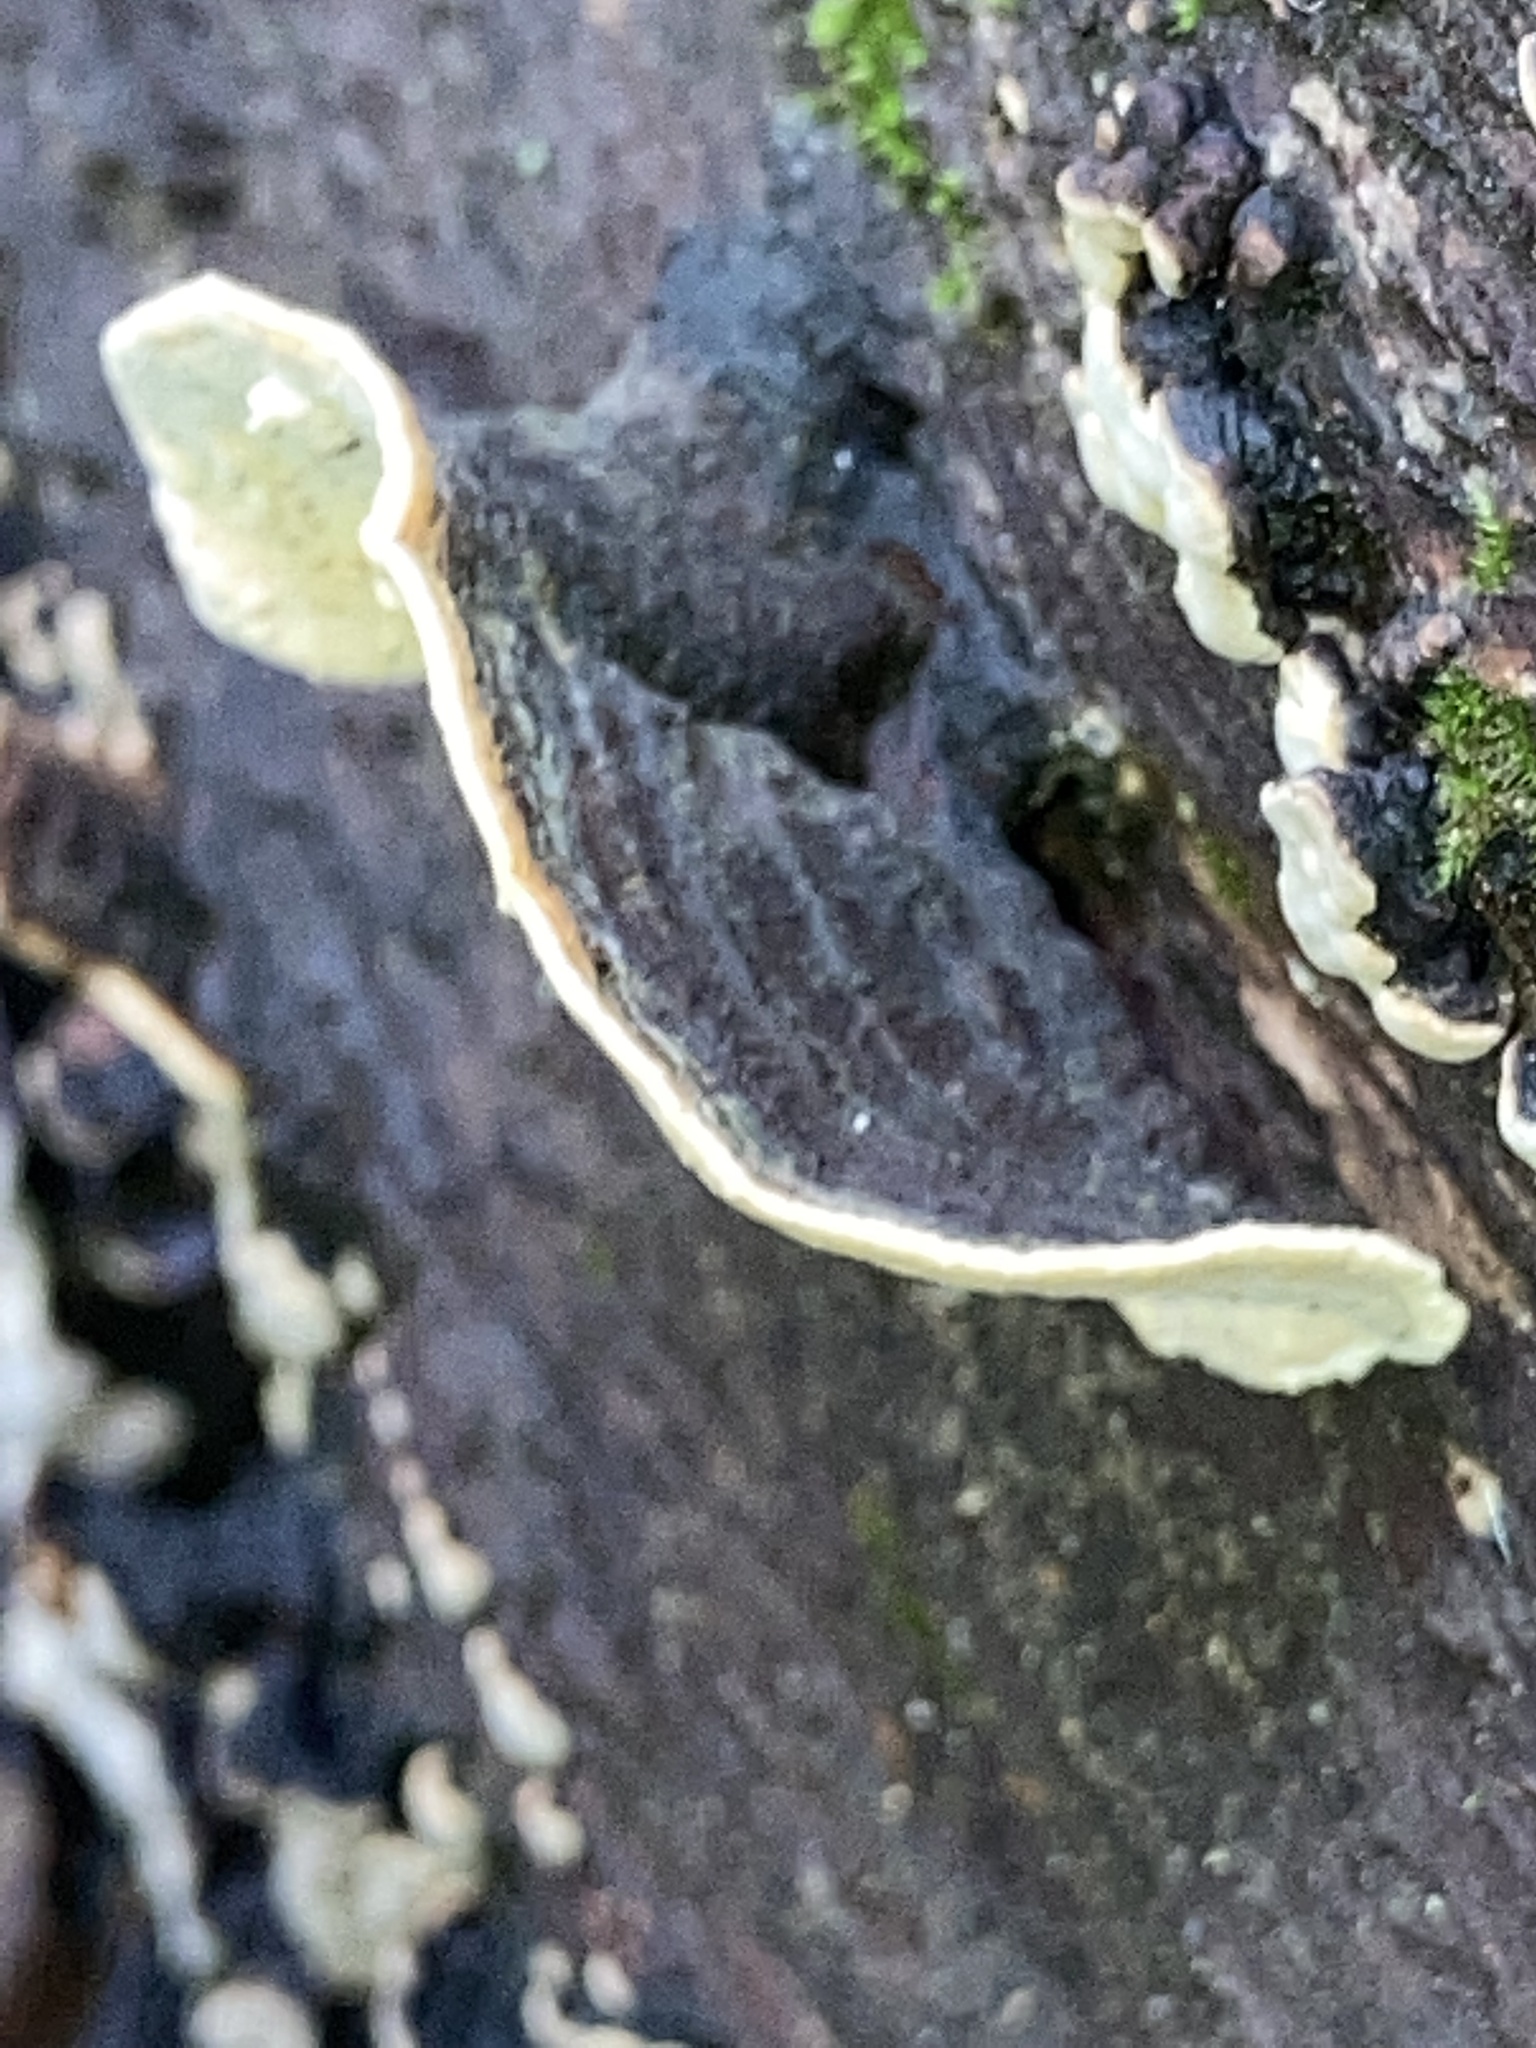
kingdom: Fungi
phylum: Basidiomycota
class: Agaricomycetes
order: Russulales
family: Stereaceae
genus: Xylobolus
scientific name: Xylobolus subpileatus
